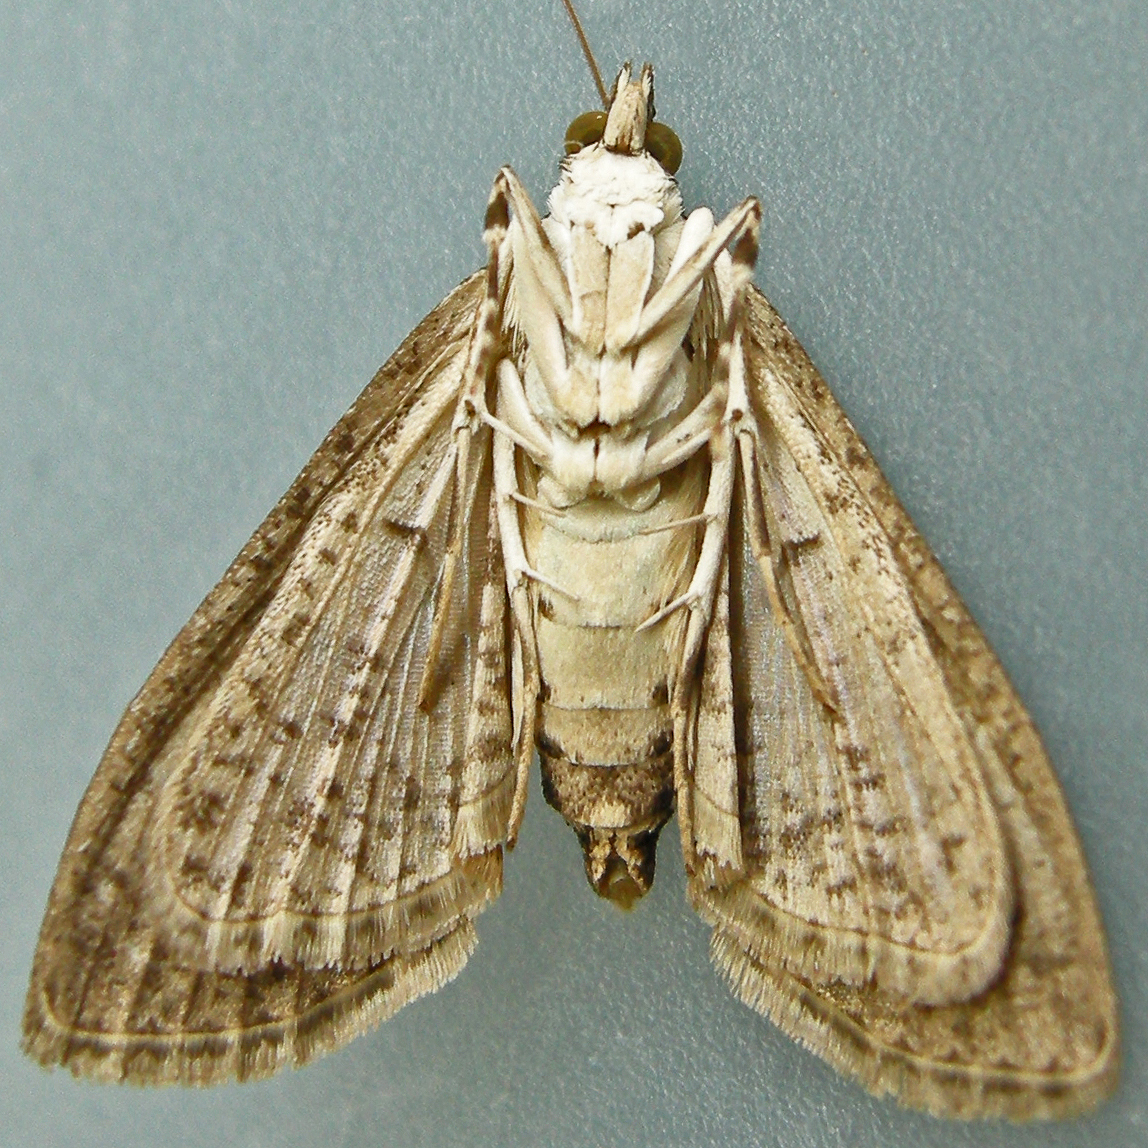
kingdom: Animalia
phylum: Arthropoda
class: Insecta
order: Lepidoptera
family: Crambidae
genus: Palpita
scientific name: Palpita magniferalis
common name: Splendid palpita moth
